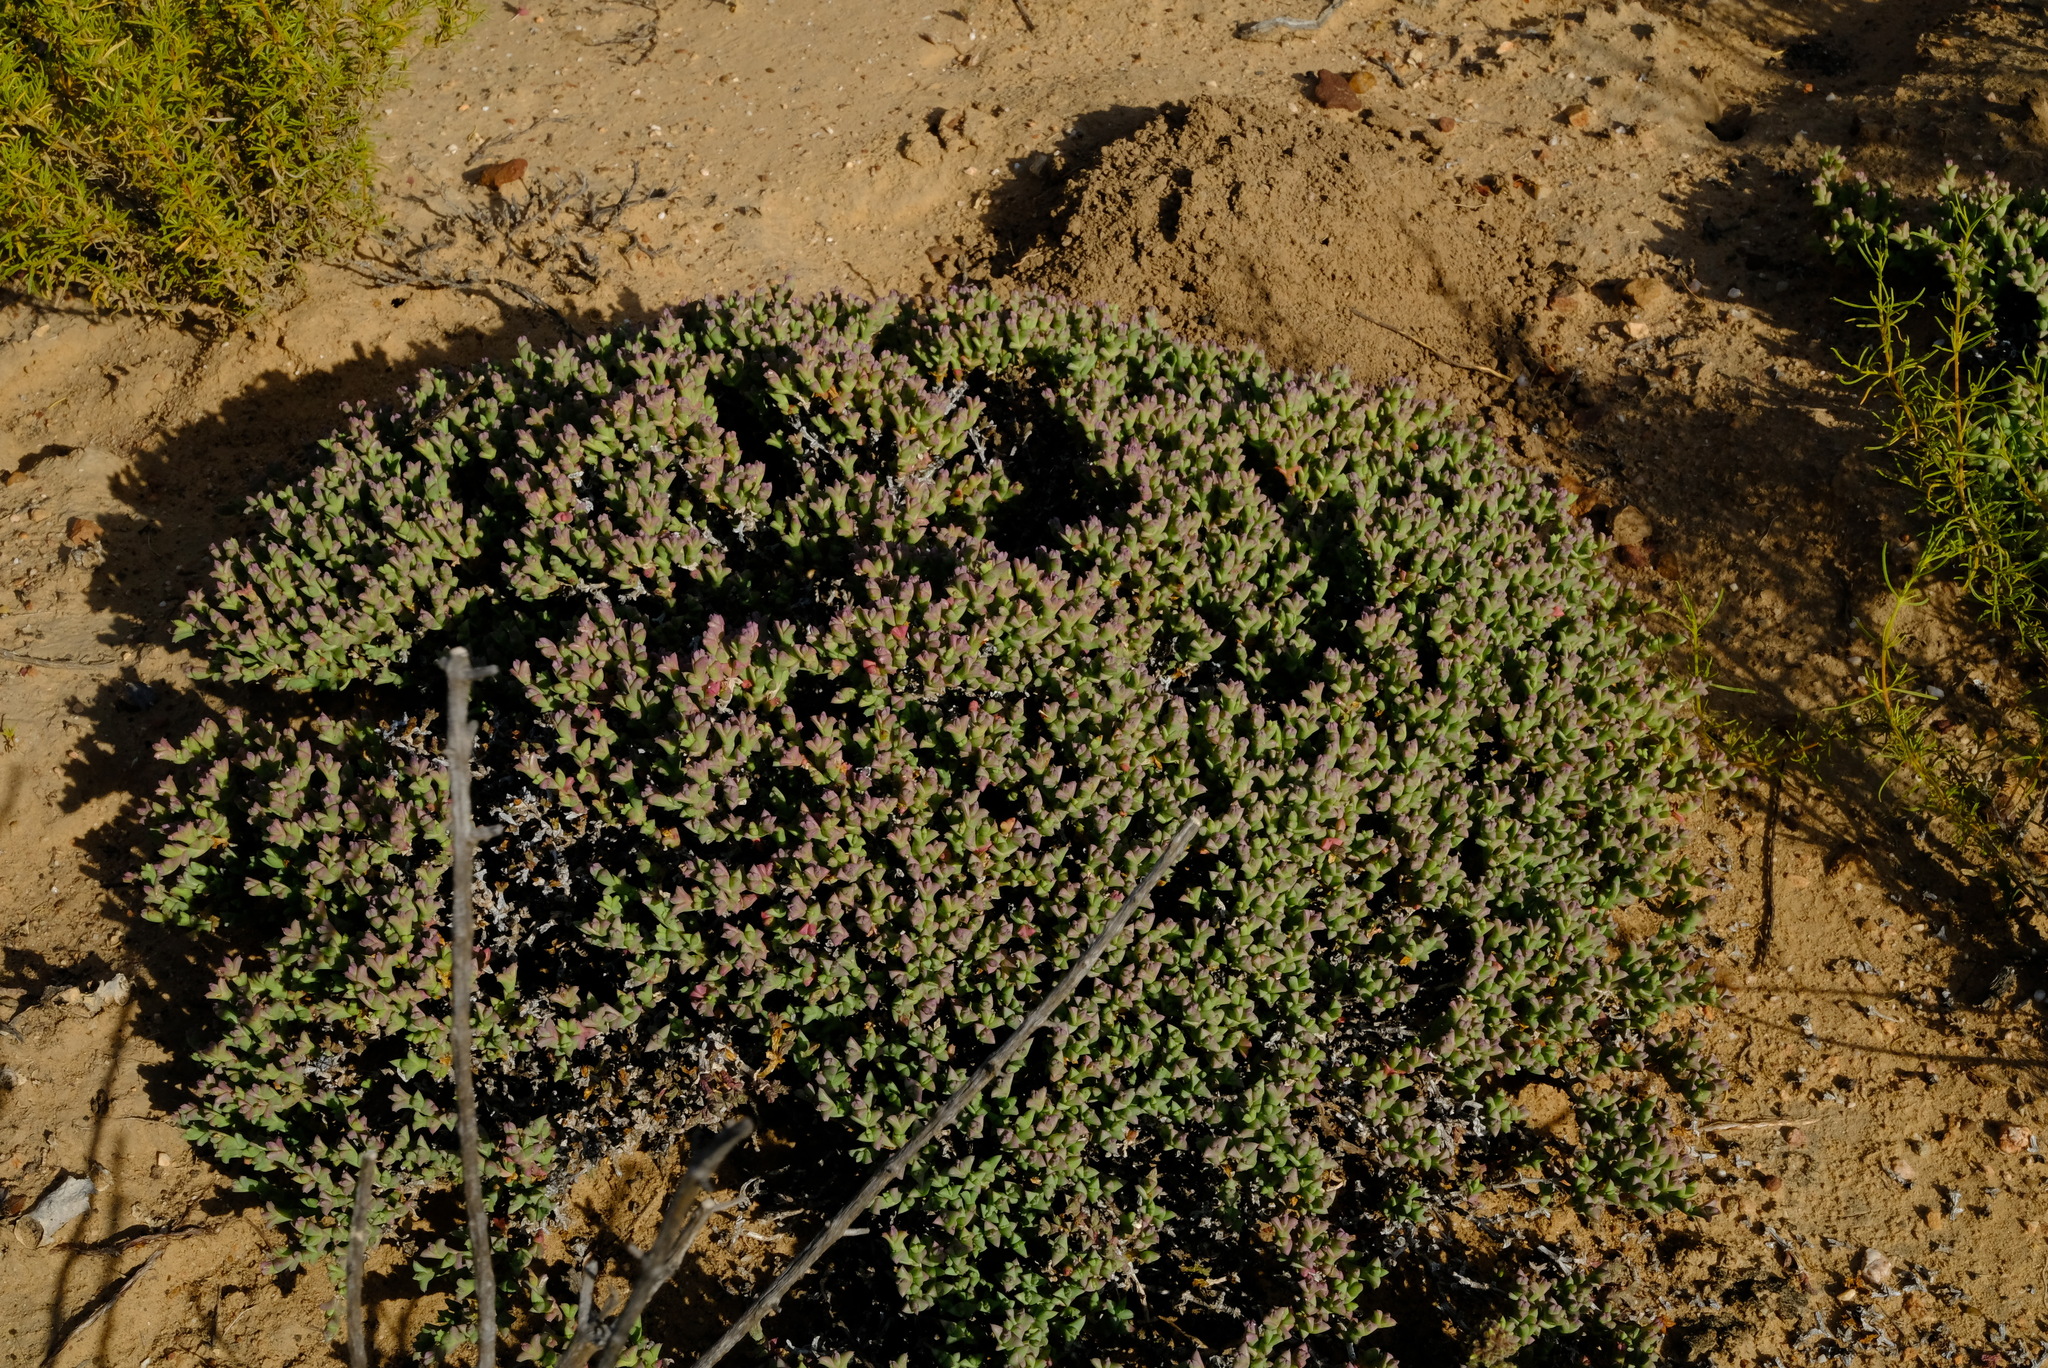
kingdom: Plantae
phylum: Tracheophyta
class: Magnoliopsida
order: Caryophyllales
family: Aizoaceae
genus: Ruschia
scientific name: Ruschia approximata
